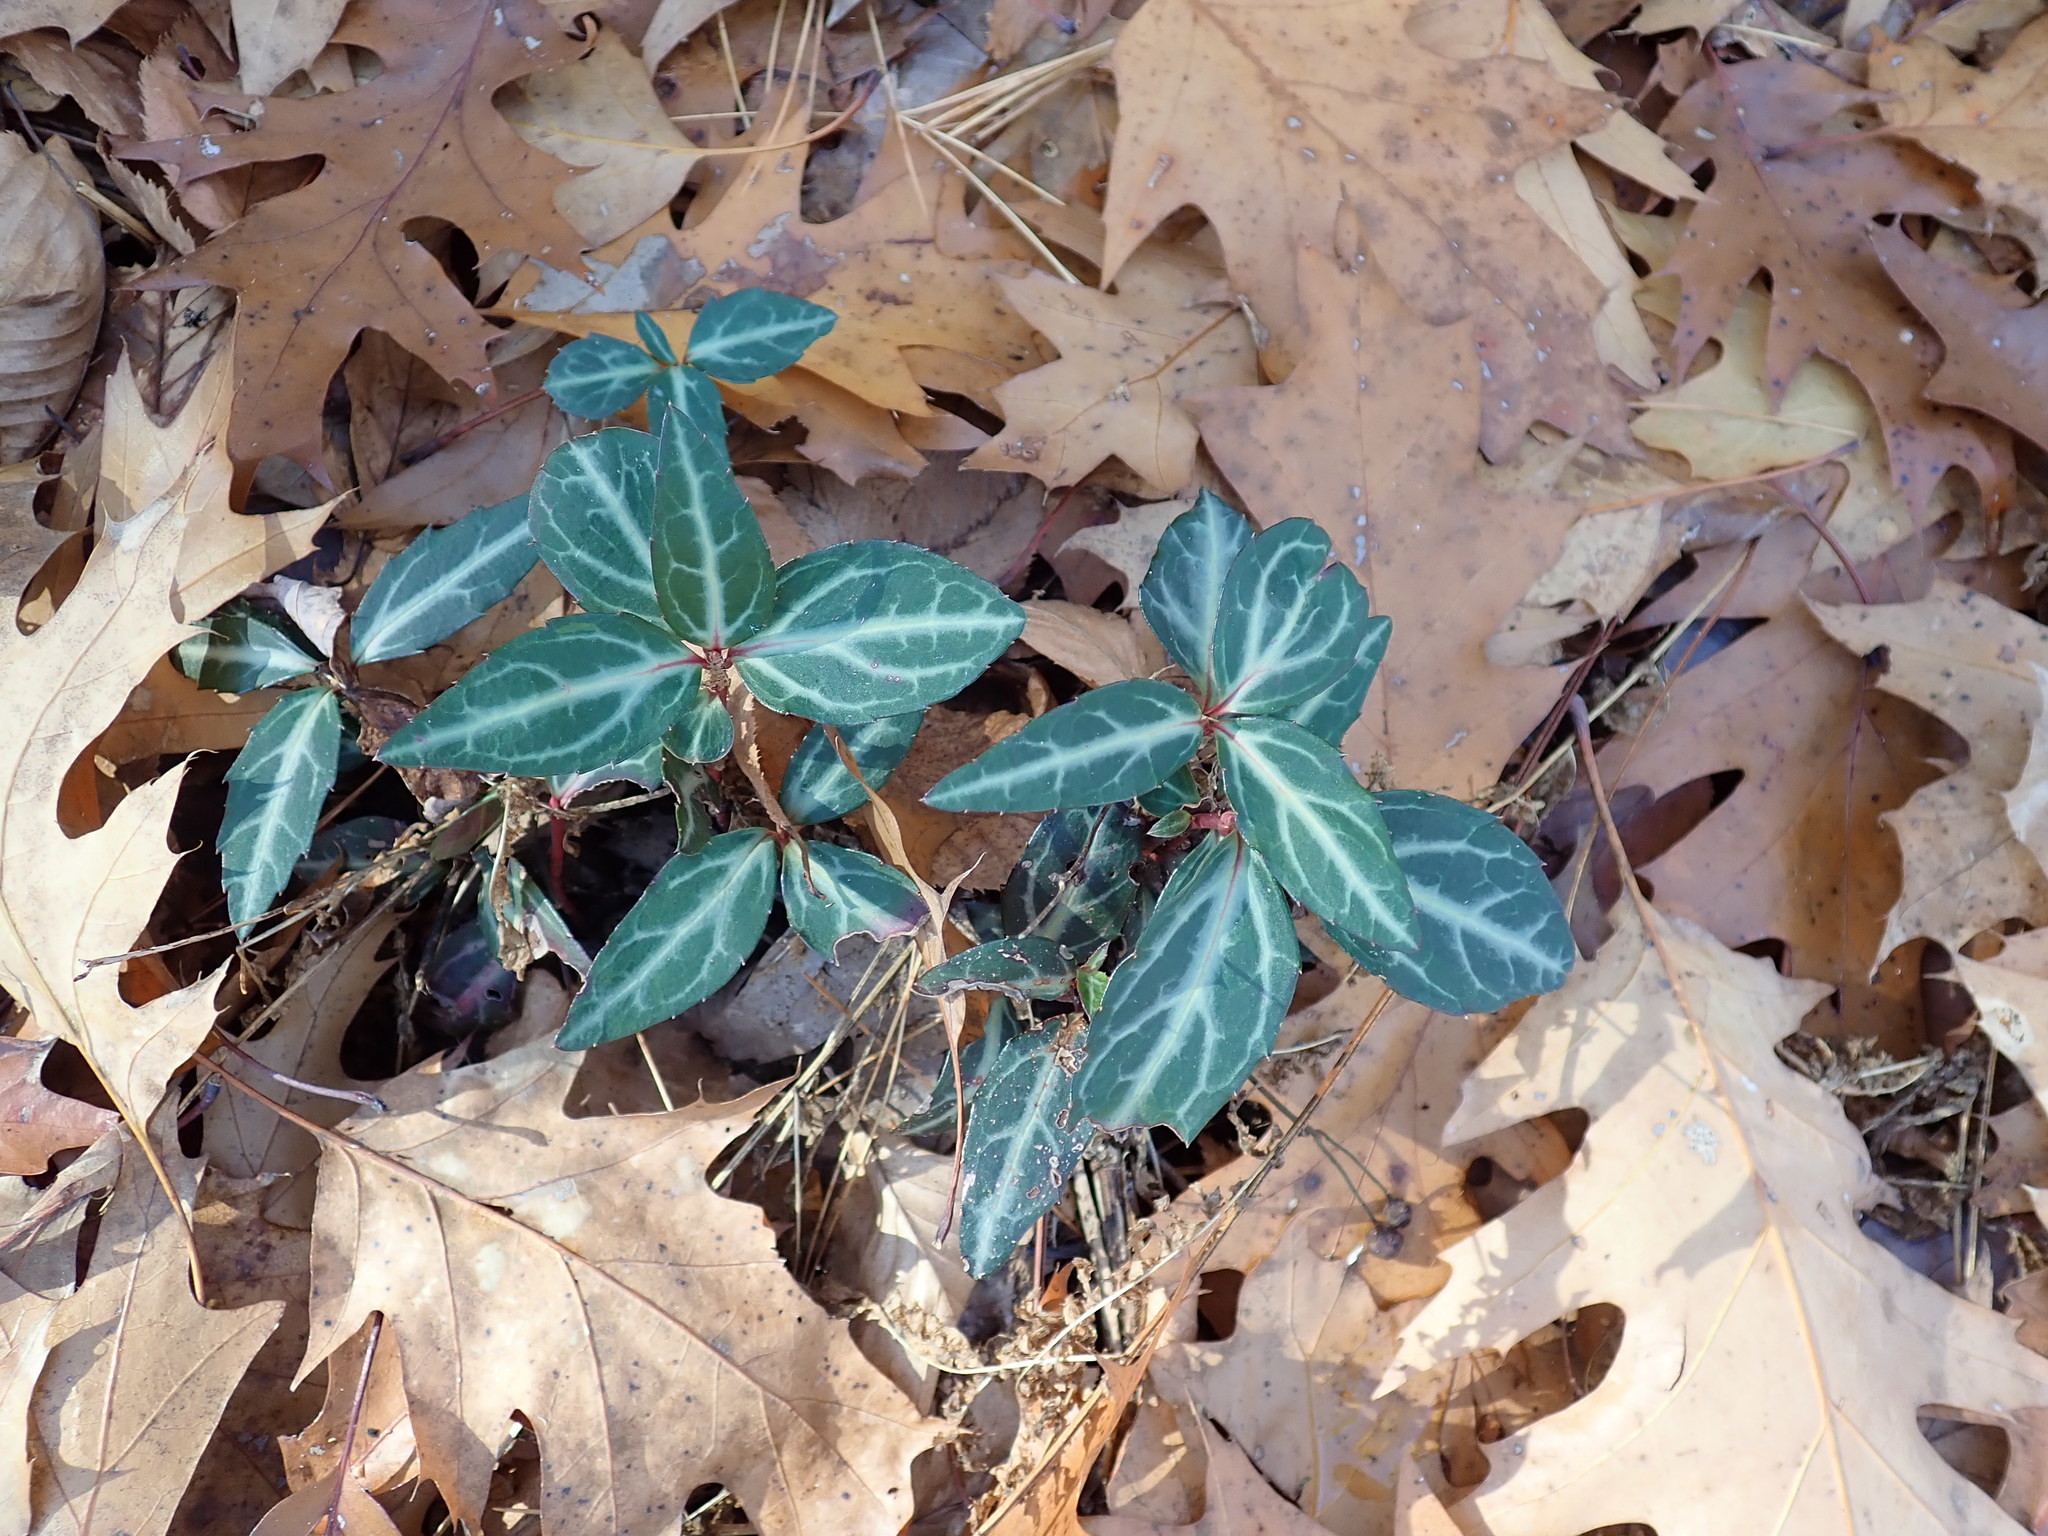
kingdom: Plantae
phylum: Tracheophyta
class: Magnoliopsida
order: Ericales
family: Ericaceae
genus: Chimaphila
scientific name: Chimaphila maculata
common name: Spotted pipsissewa
